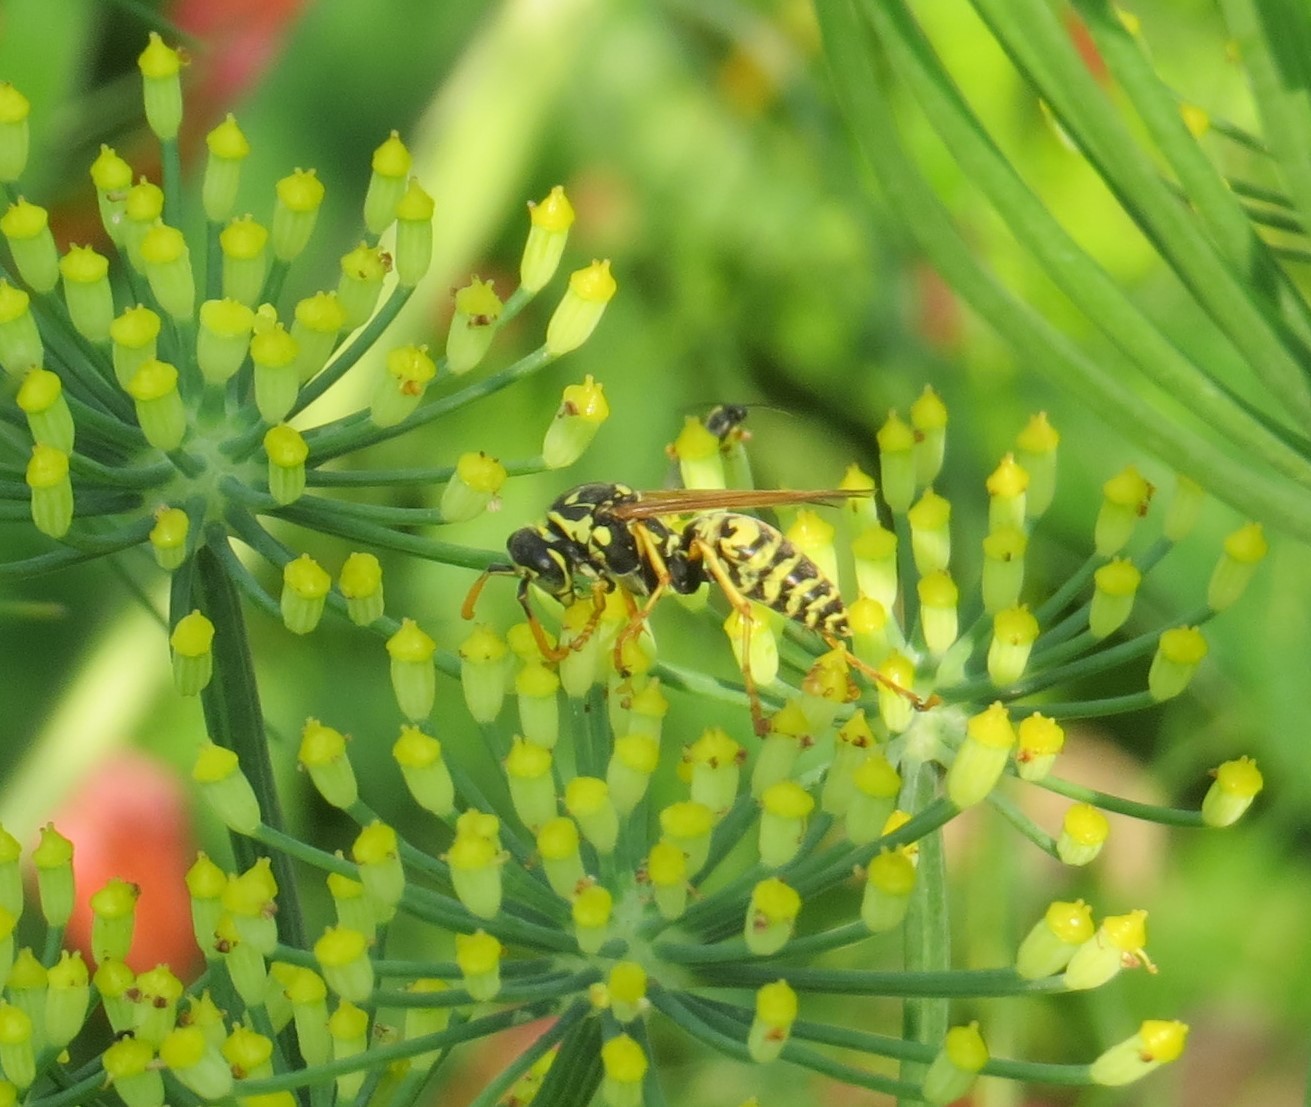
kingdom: Animalia
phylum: Arthropoda
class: Insecta
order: Hymenoptera
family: Eumenidae
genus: Polistes
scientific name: Polistes dominula
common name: Paper wasp
